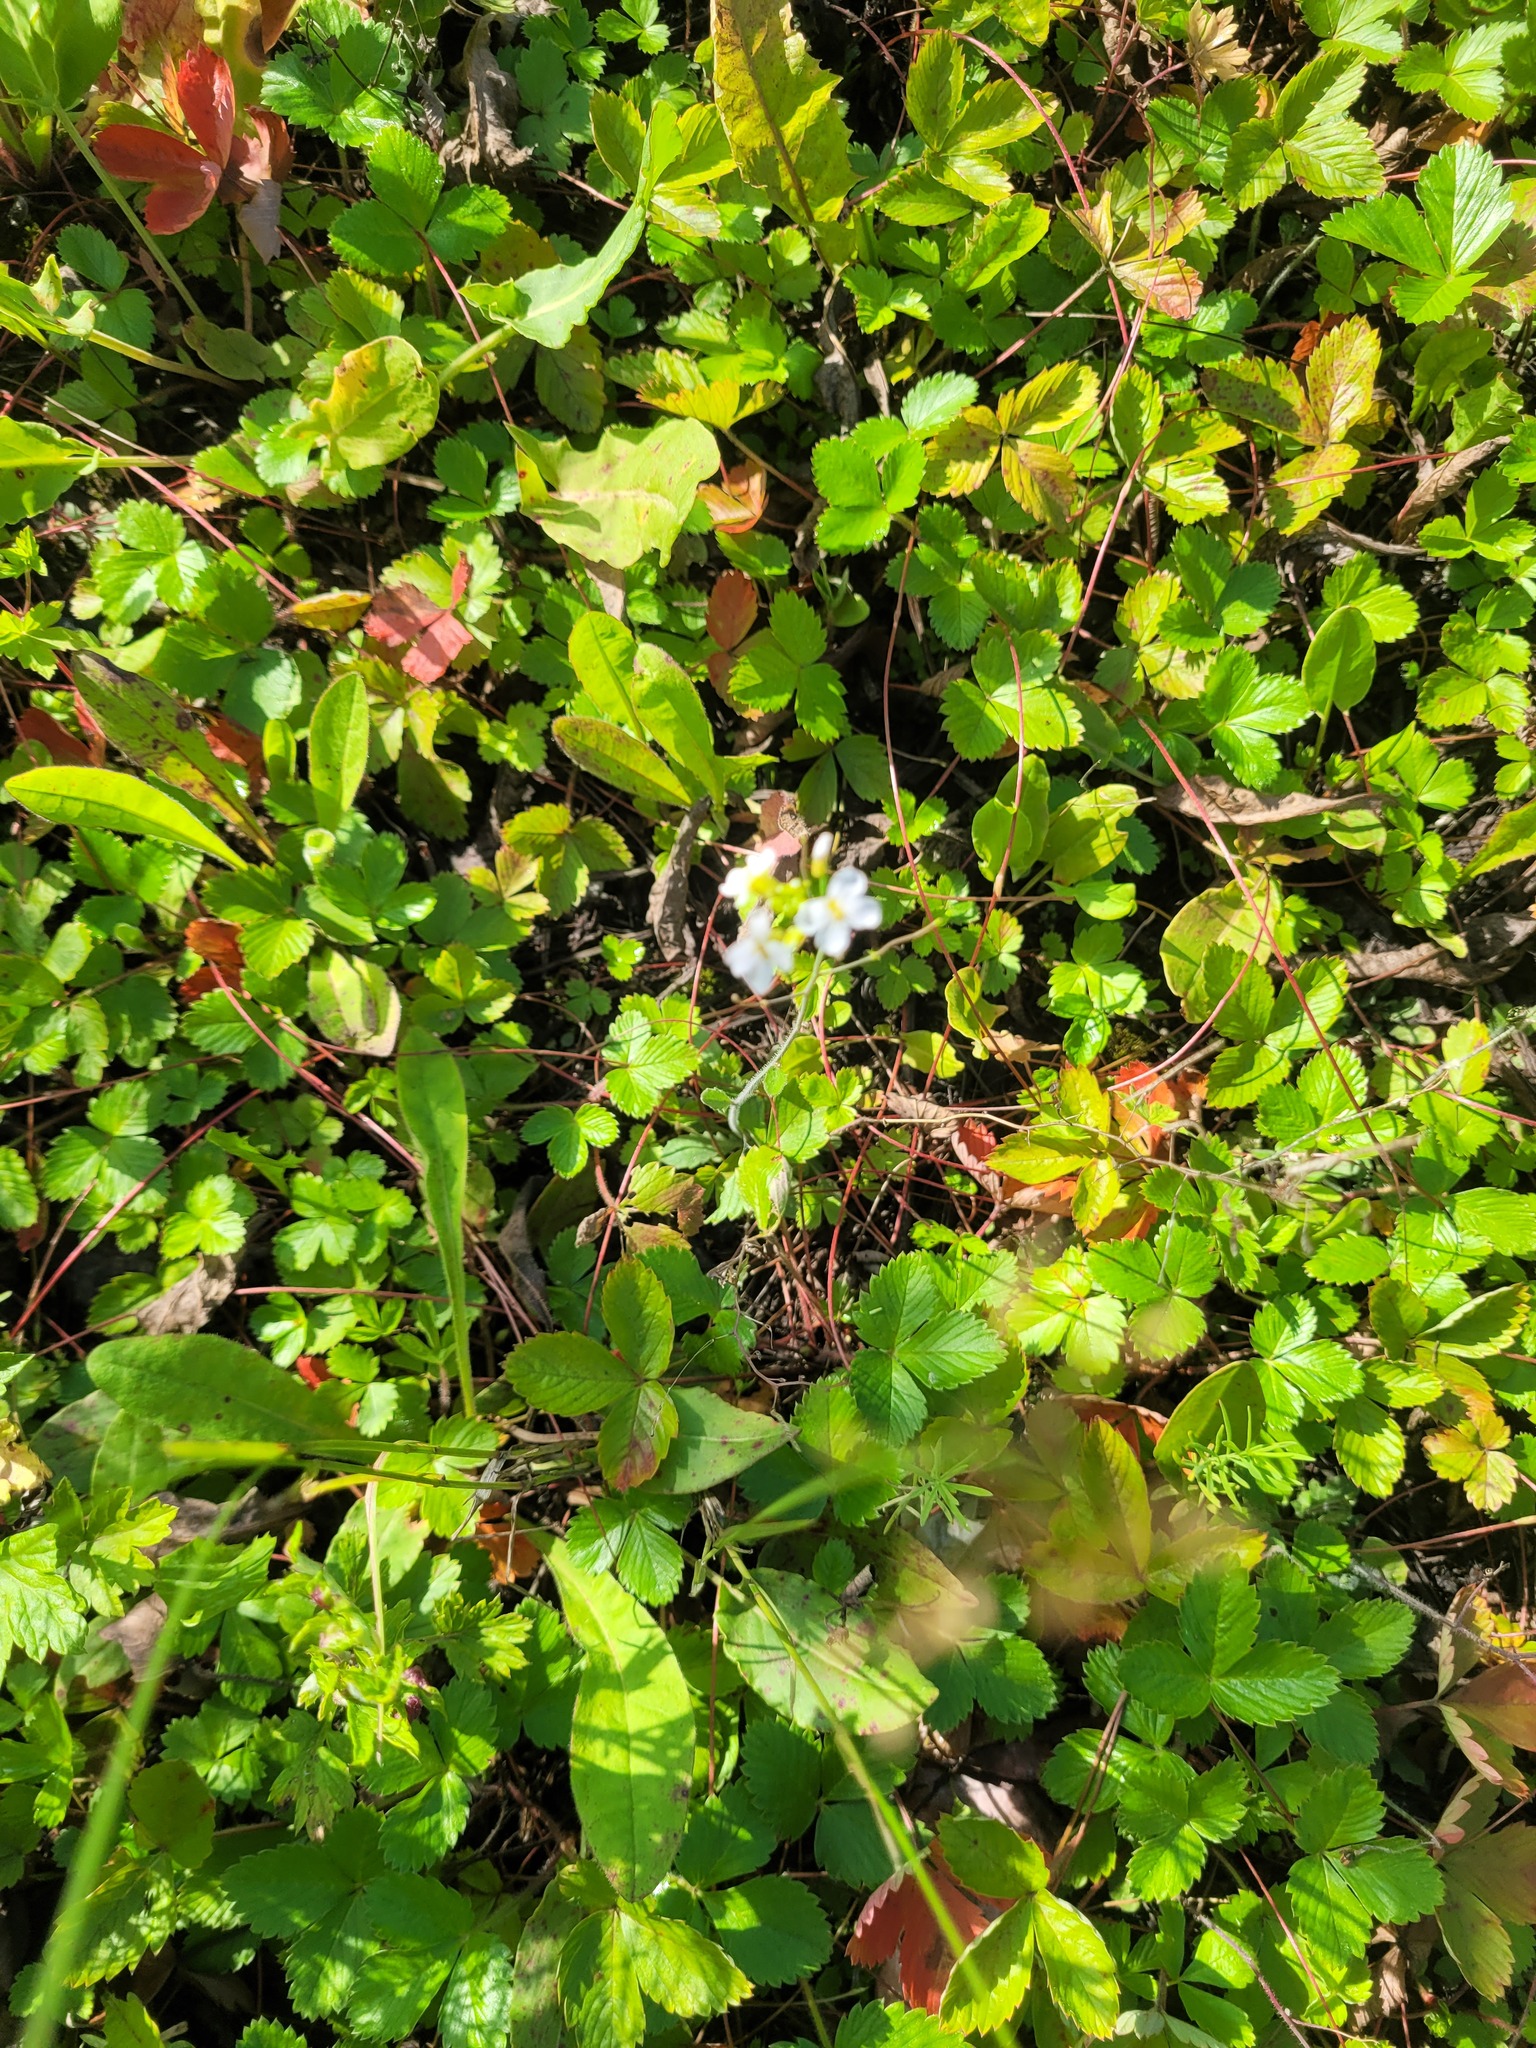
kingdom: Plantae
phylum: Tracheophyta
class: Magnoliopsida
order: Brassicales
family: Brassicaceae
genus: Arabidopsis
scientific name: Arabidopsis arenosa
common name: Sand rock-cress
